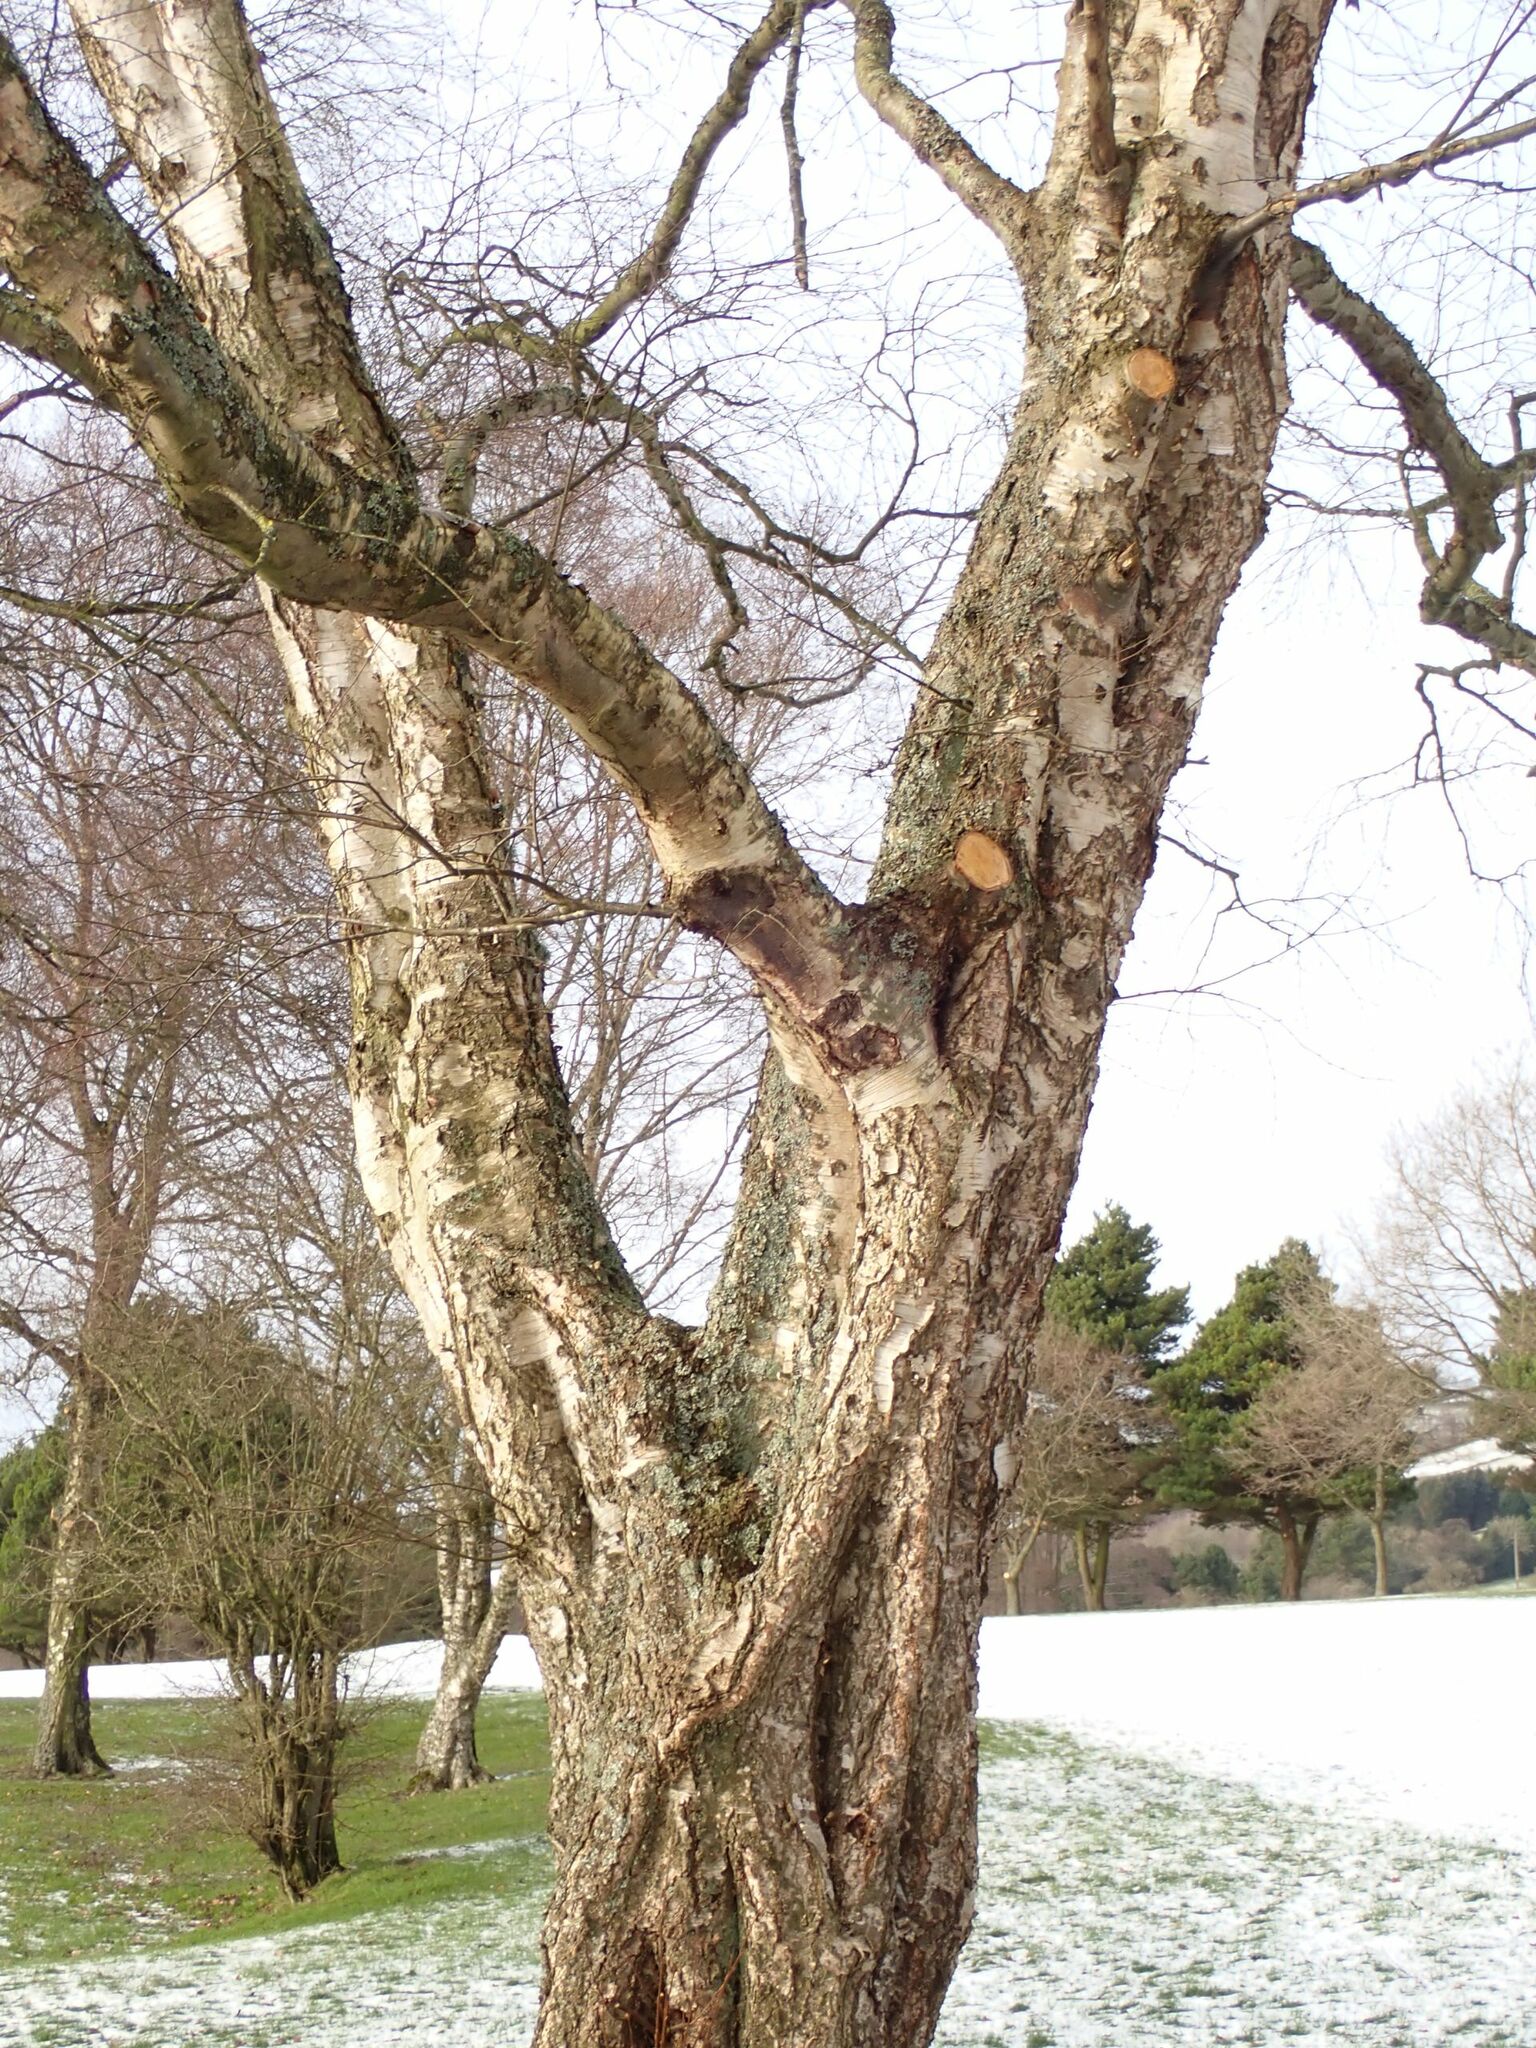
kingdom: Plantae
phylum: Tracheophyta
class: Magnoliopsida
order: Fagales
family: Betulaceae
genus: Betula
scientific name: Betula pendula
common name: Silver birch
